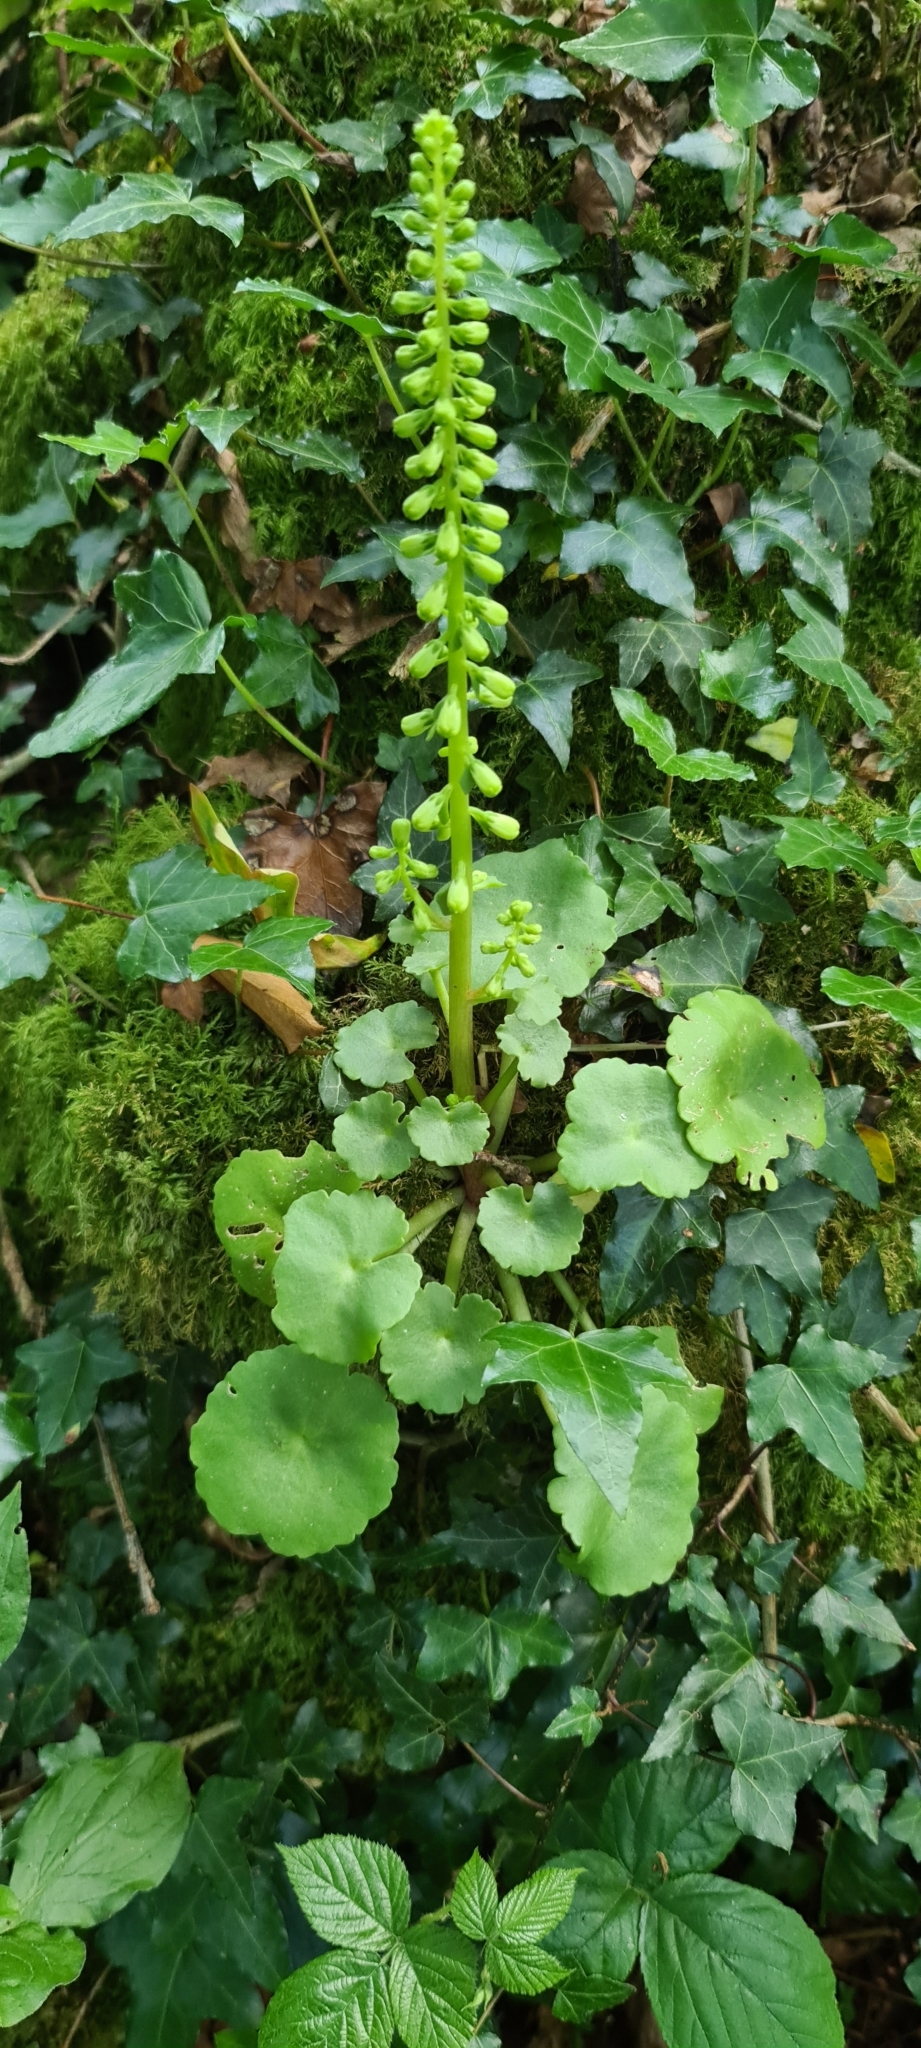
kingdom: Plantae
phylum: Tracheophyta
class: Magnoliopsida
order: Saxifragales
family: Crassulaceae
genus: Umbilicus
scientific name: Umbilicus rupestris
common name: Navelwort
